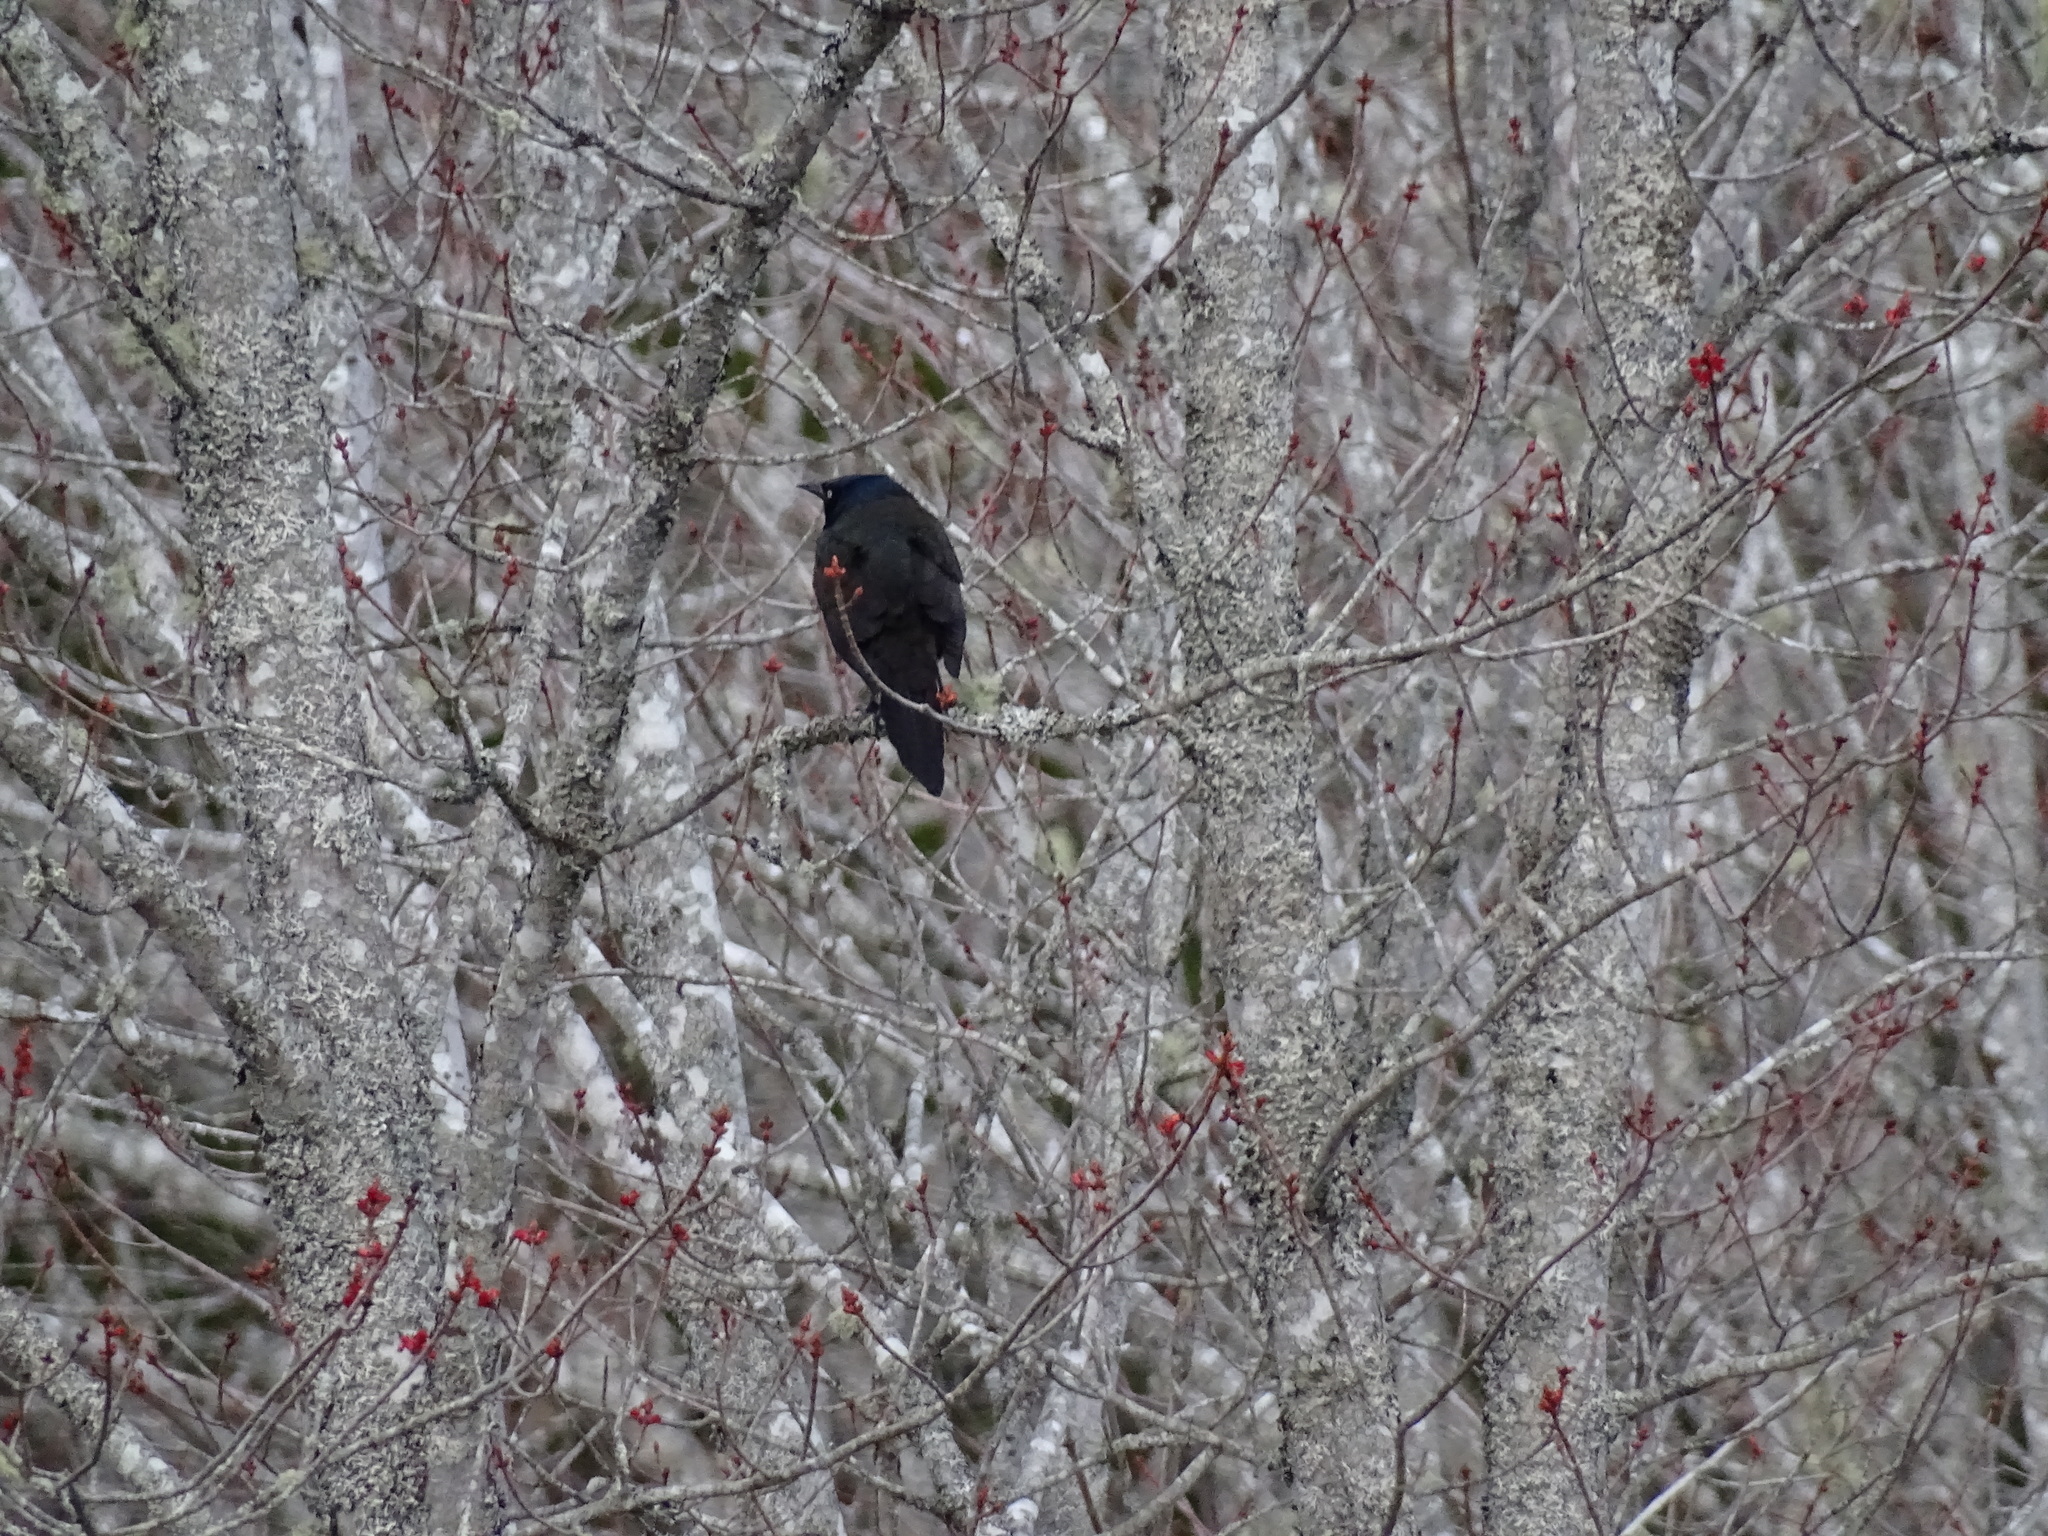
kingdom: Animalia
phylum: Chordata
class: Aves
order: Passeriformes
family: Icteridae
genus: Quiscalus
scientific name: Quiscalus quiscula
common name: Common grackle
